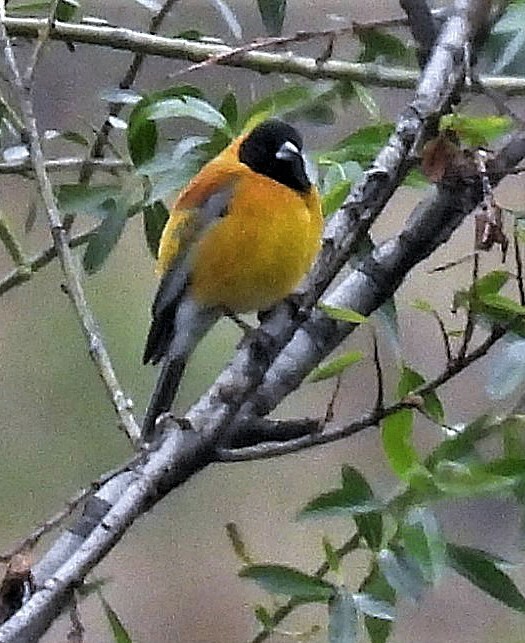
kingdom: Animalia
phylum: Chordata
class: Aves
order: Passeriformes
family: Thraupidae
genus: Phrygilus
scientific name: Phrygilus atriceps
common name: Black-hooded sierra finch
